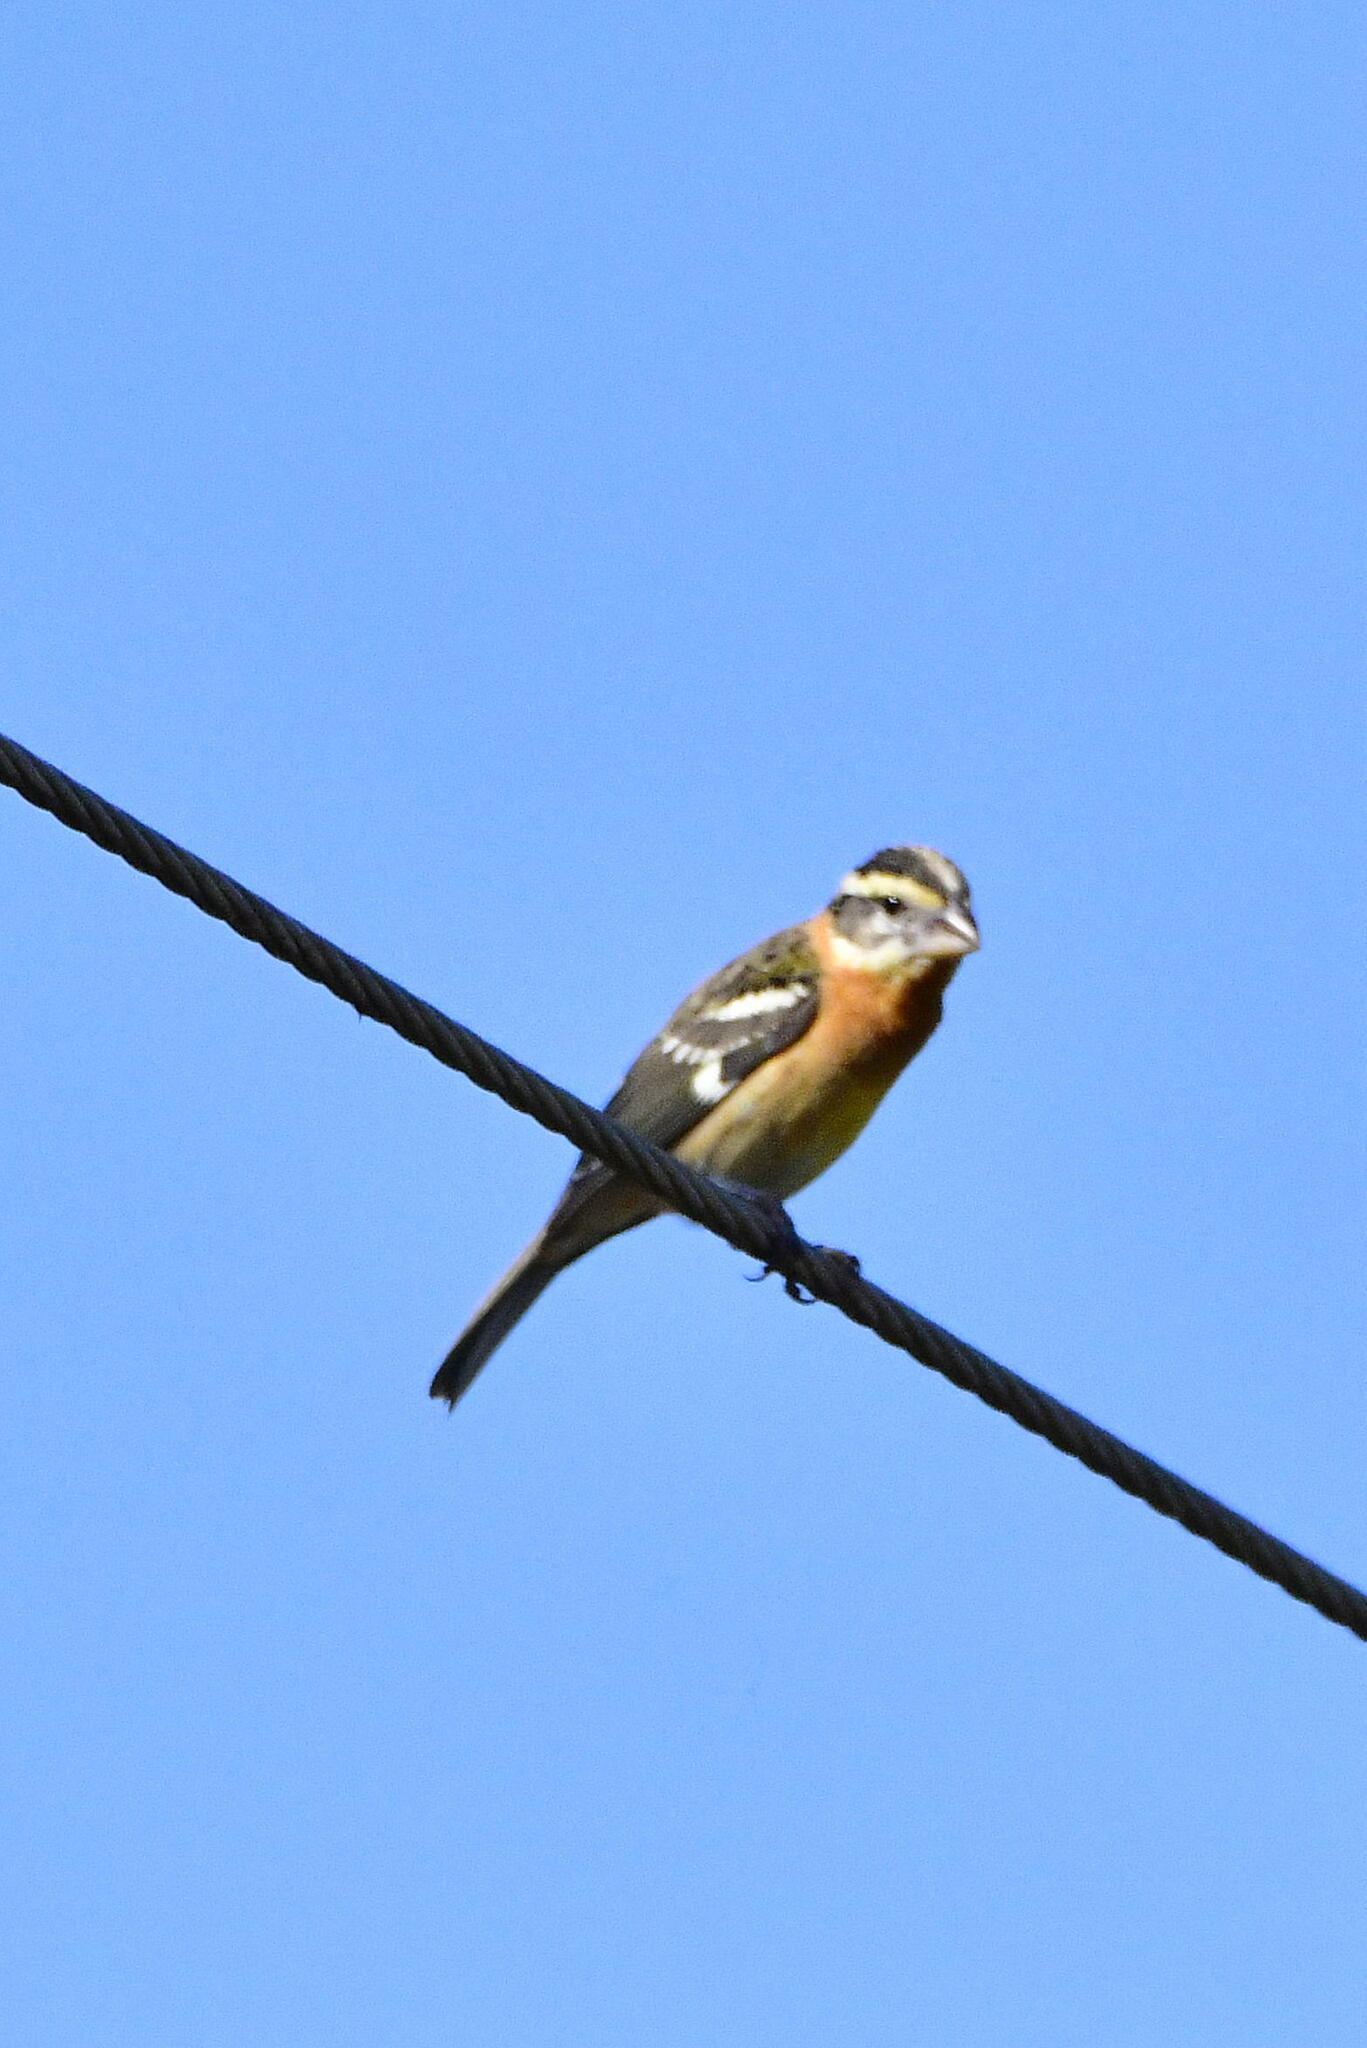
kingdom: Animalia
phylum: Chordata
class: Aves
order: Passeriformes
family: Cardinalidae
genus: Pheucticus
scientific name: Pheucticus melanocephalus
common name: Black-headed grosbeak
